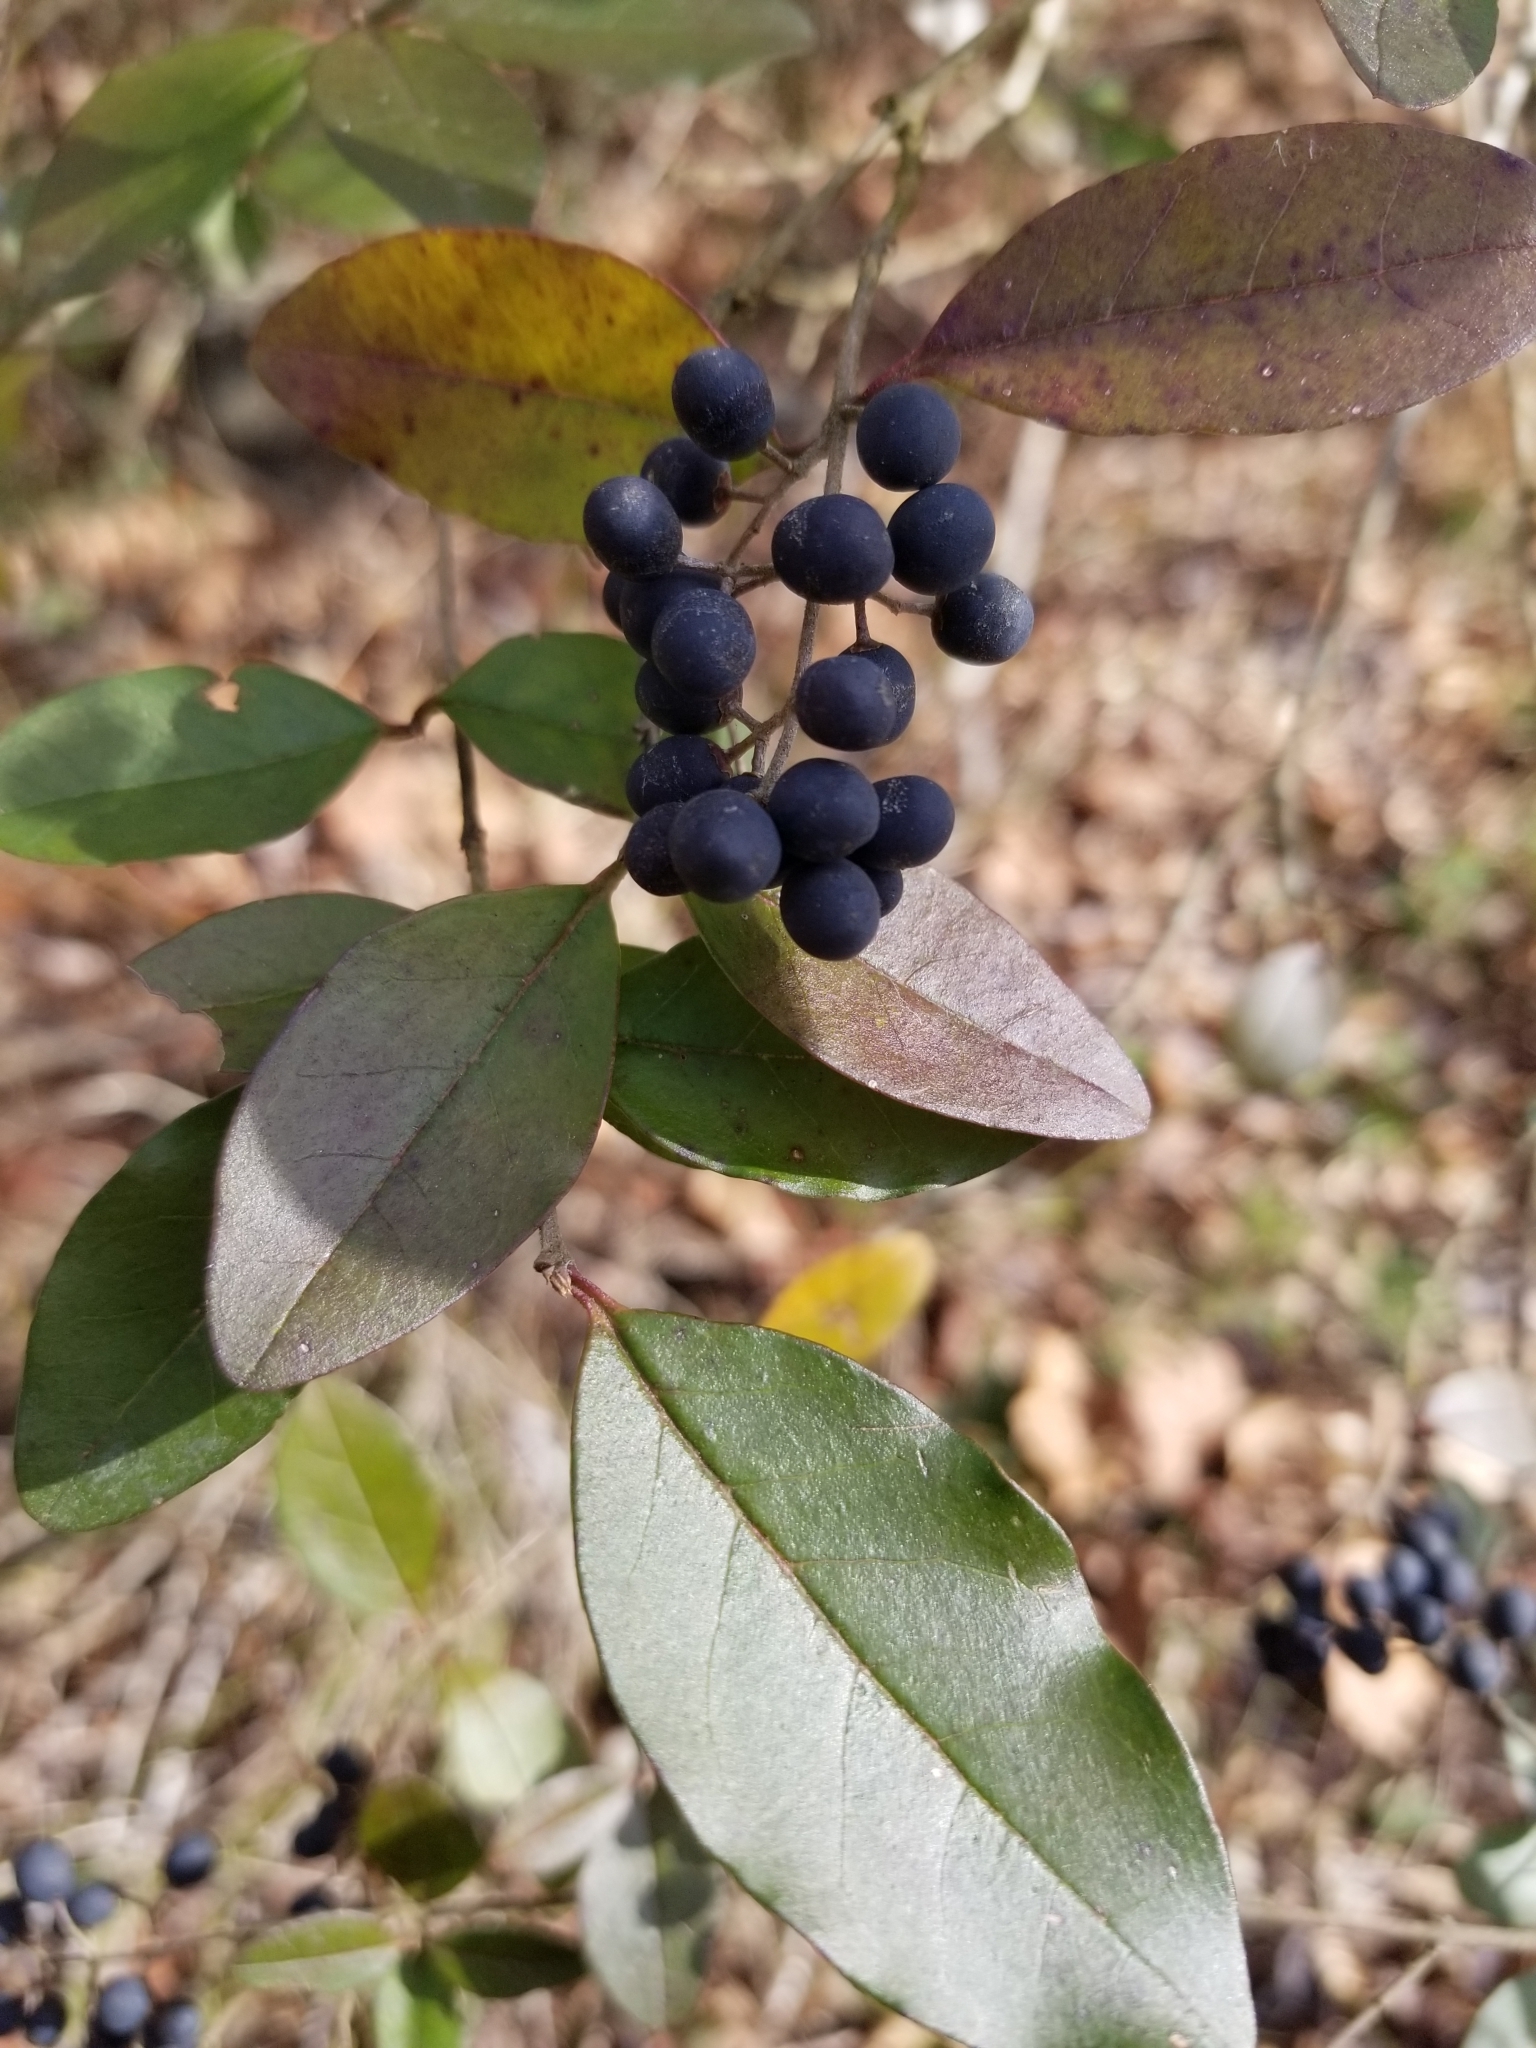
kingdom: Plantae
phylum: Tracheophyta
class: Magnoliopsida
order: Lamiales
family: Oleaceae
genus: Ligustrum
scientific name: Ligustrum sinense
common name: Chinese privet
